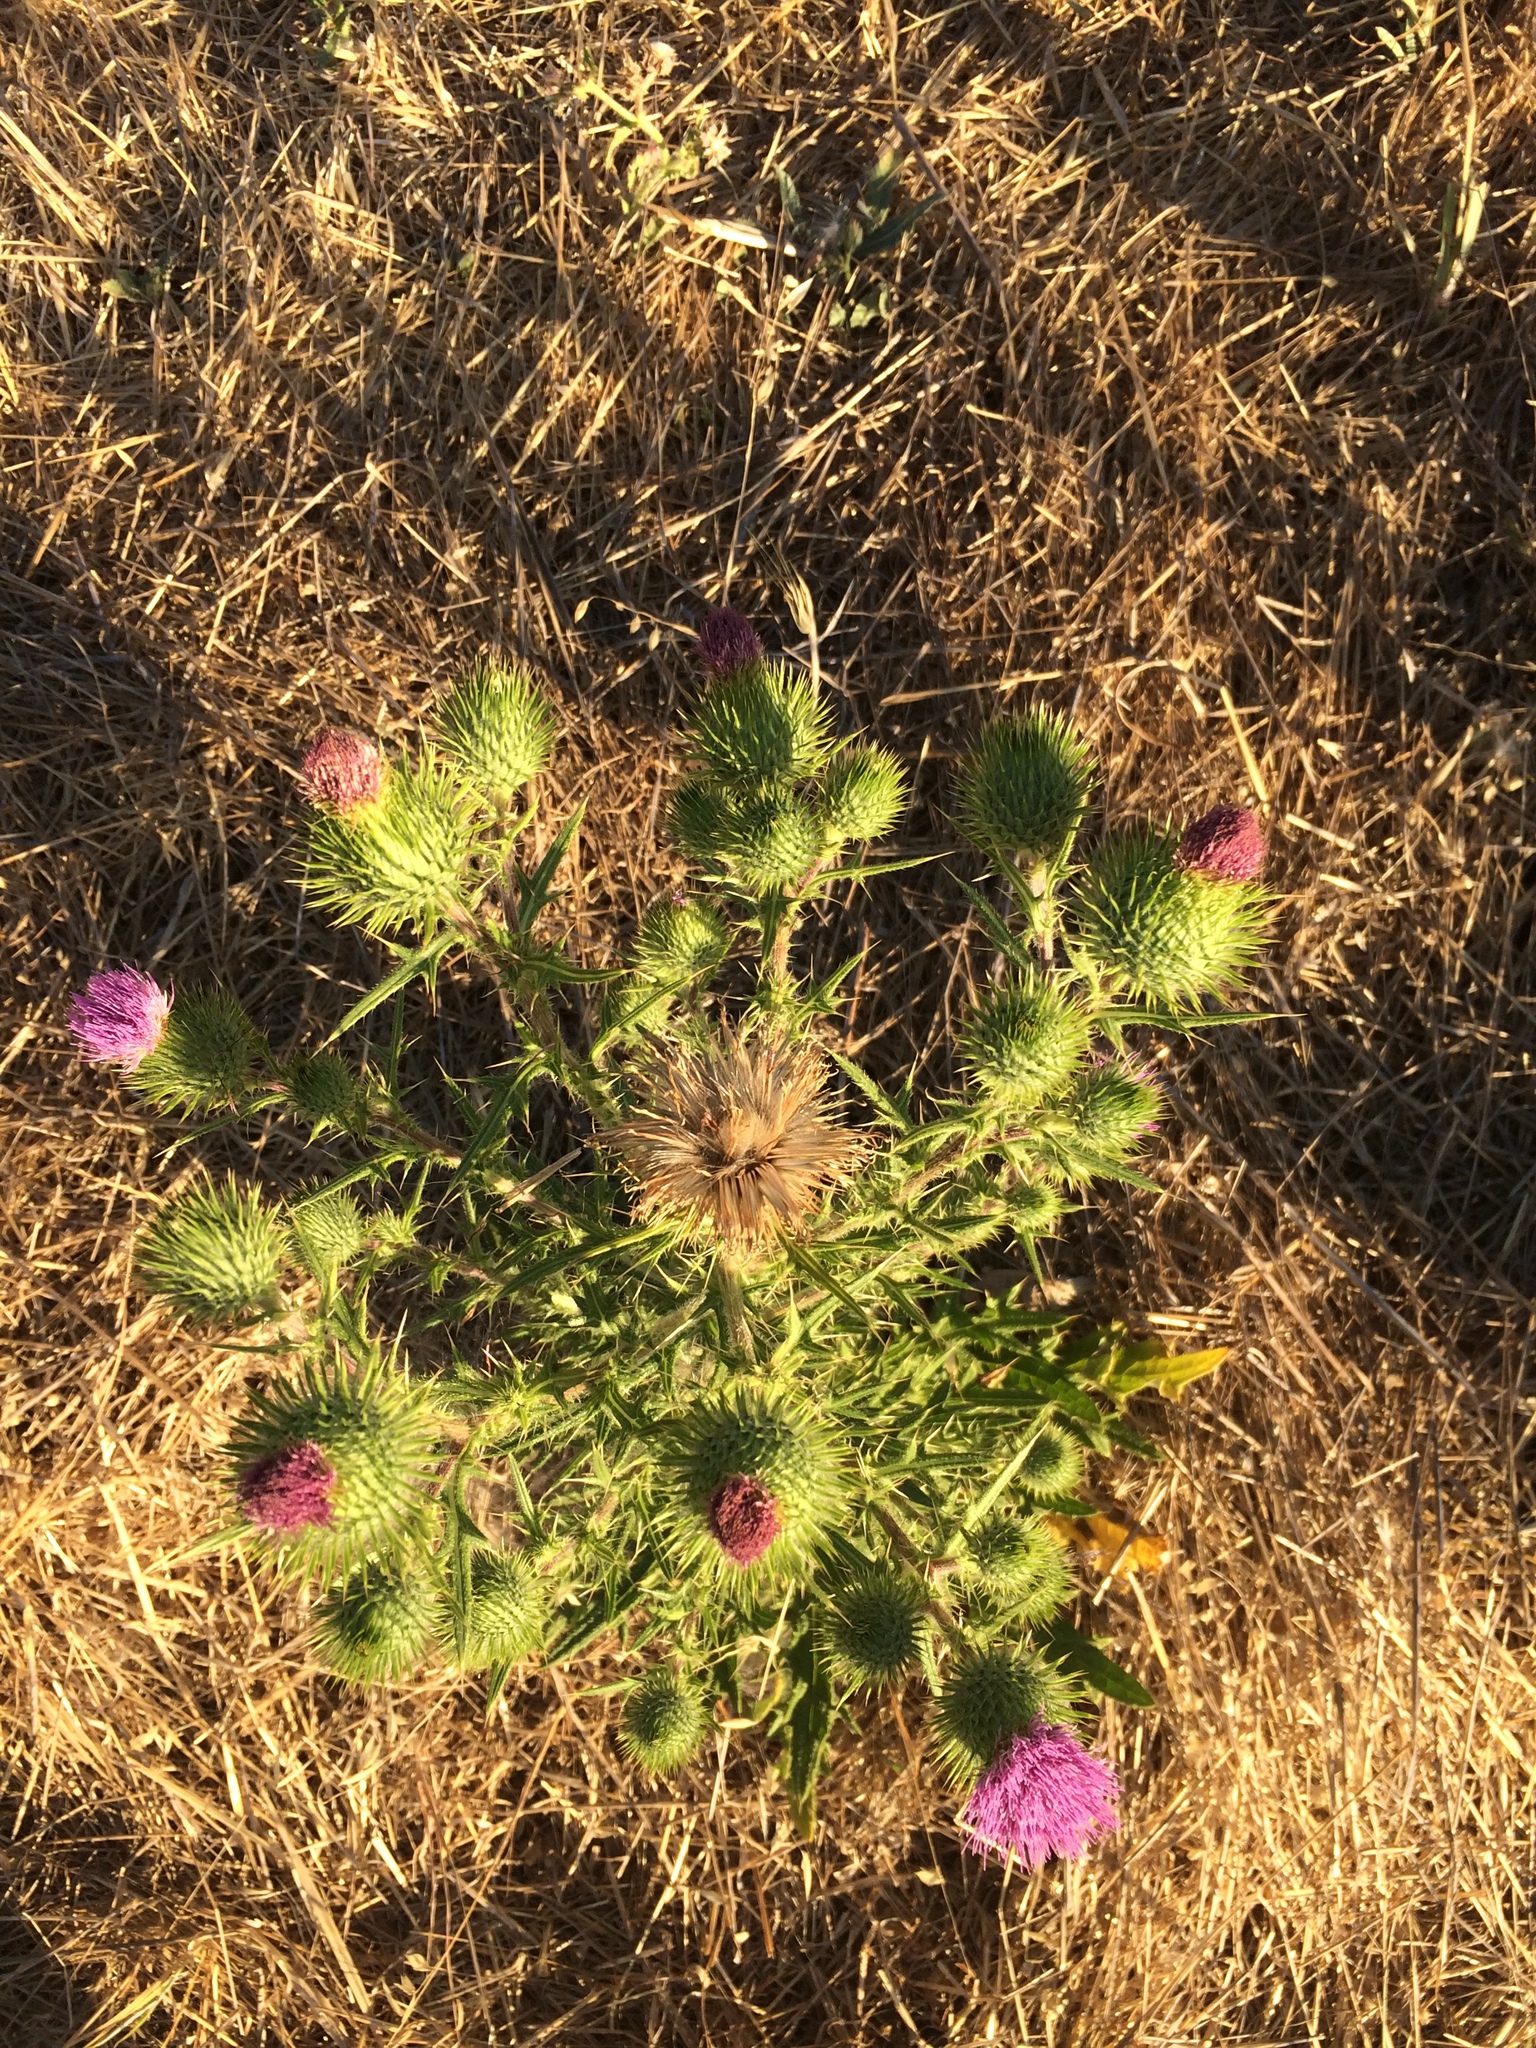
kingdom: Plantae
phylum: Tracheophyta
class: Magnoliopsida
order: Asterales
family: Asteraceae
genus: Cirsium
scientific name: Cirsium vulgare
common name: Bull thistle
